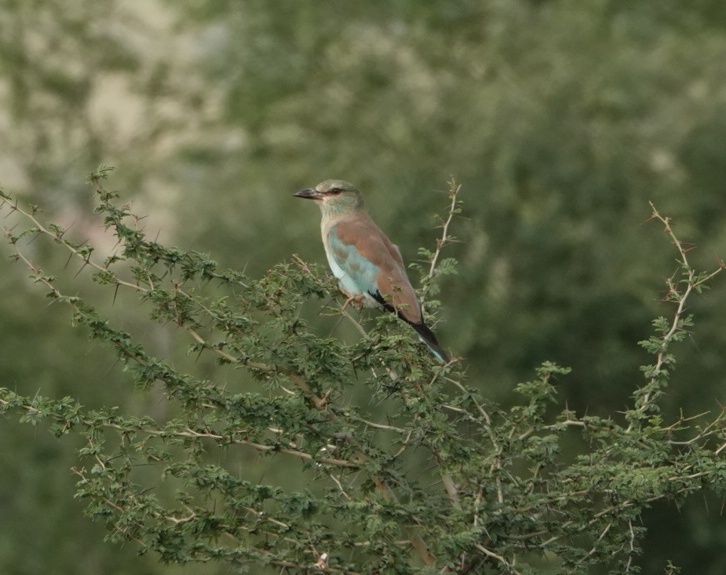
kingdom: Animalia
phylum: Chordata
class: Aves
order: Coraciiformes
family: Coraciidae
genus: Coracias
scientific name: Coracias garrulus
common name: European roller
